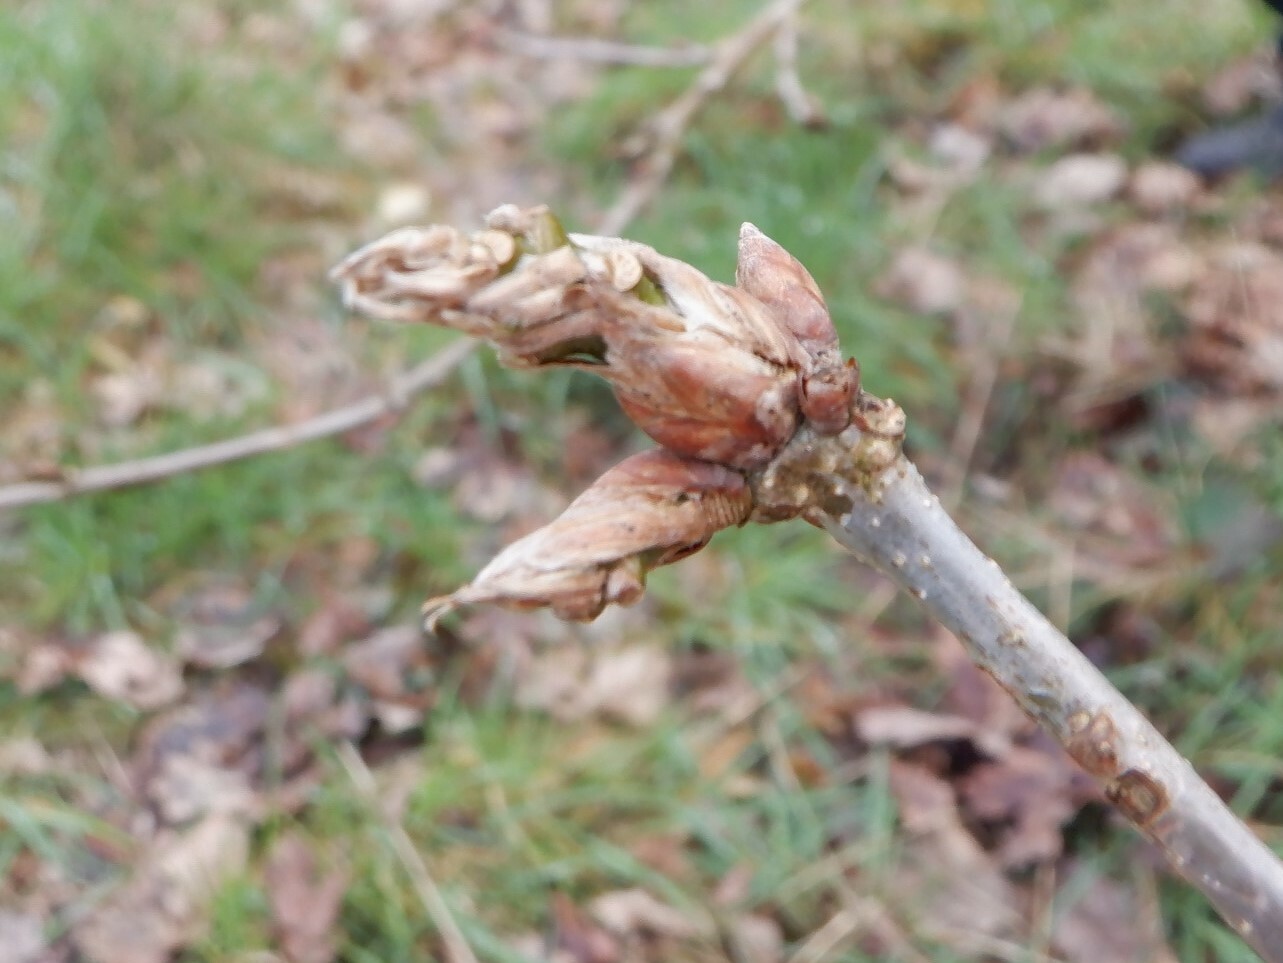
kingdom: Animalia
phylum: Arthropoda
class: Insecta
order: Hymenoptera
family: Cynipidae
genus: Andricus
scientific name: Andricus inflator
